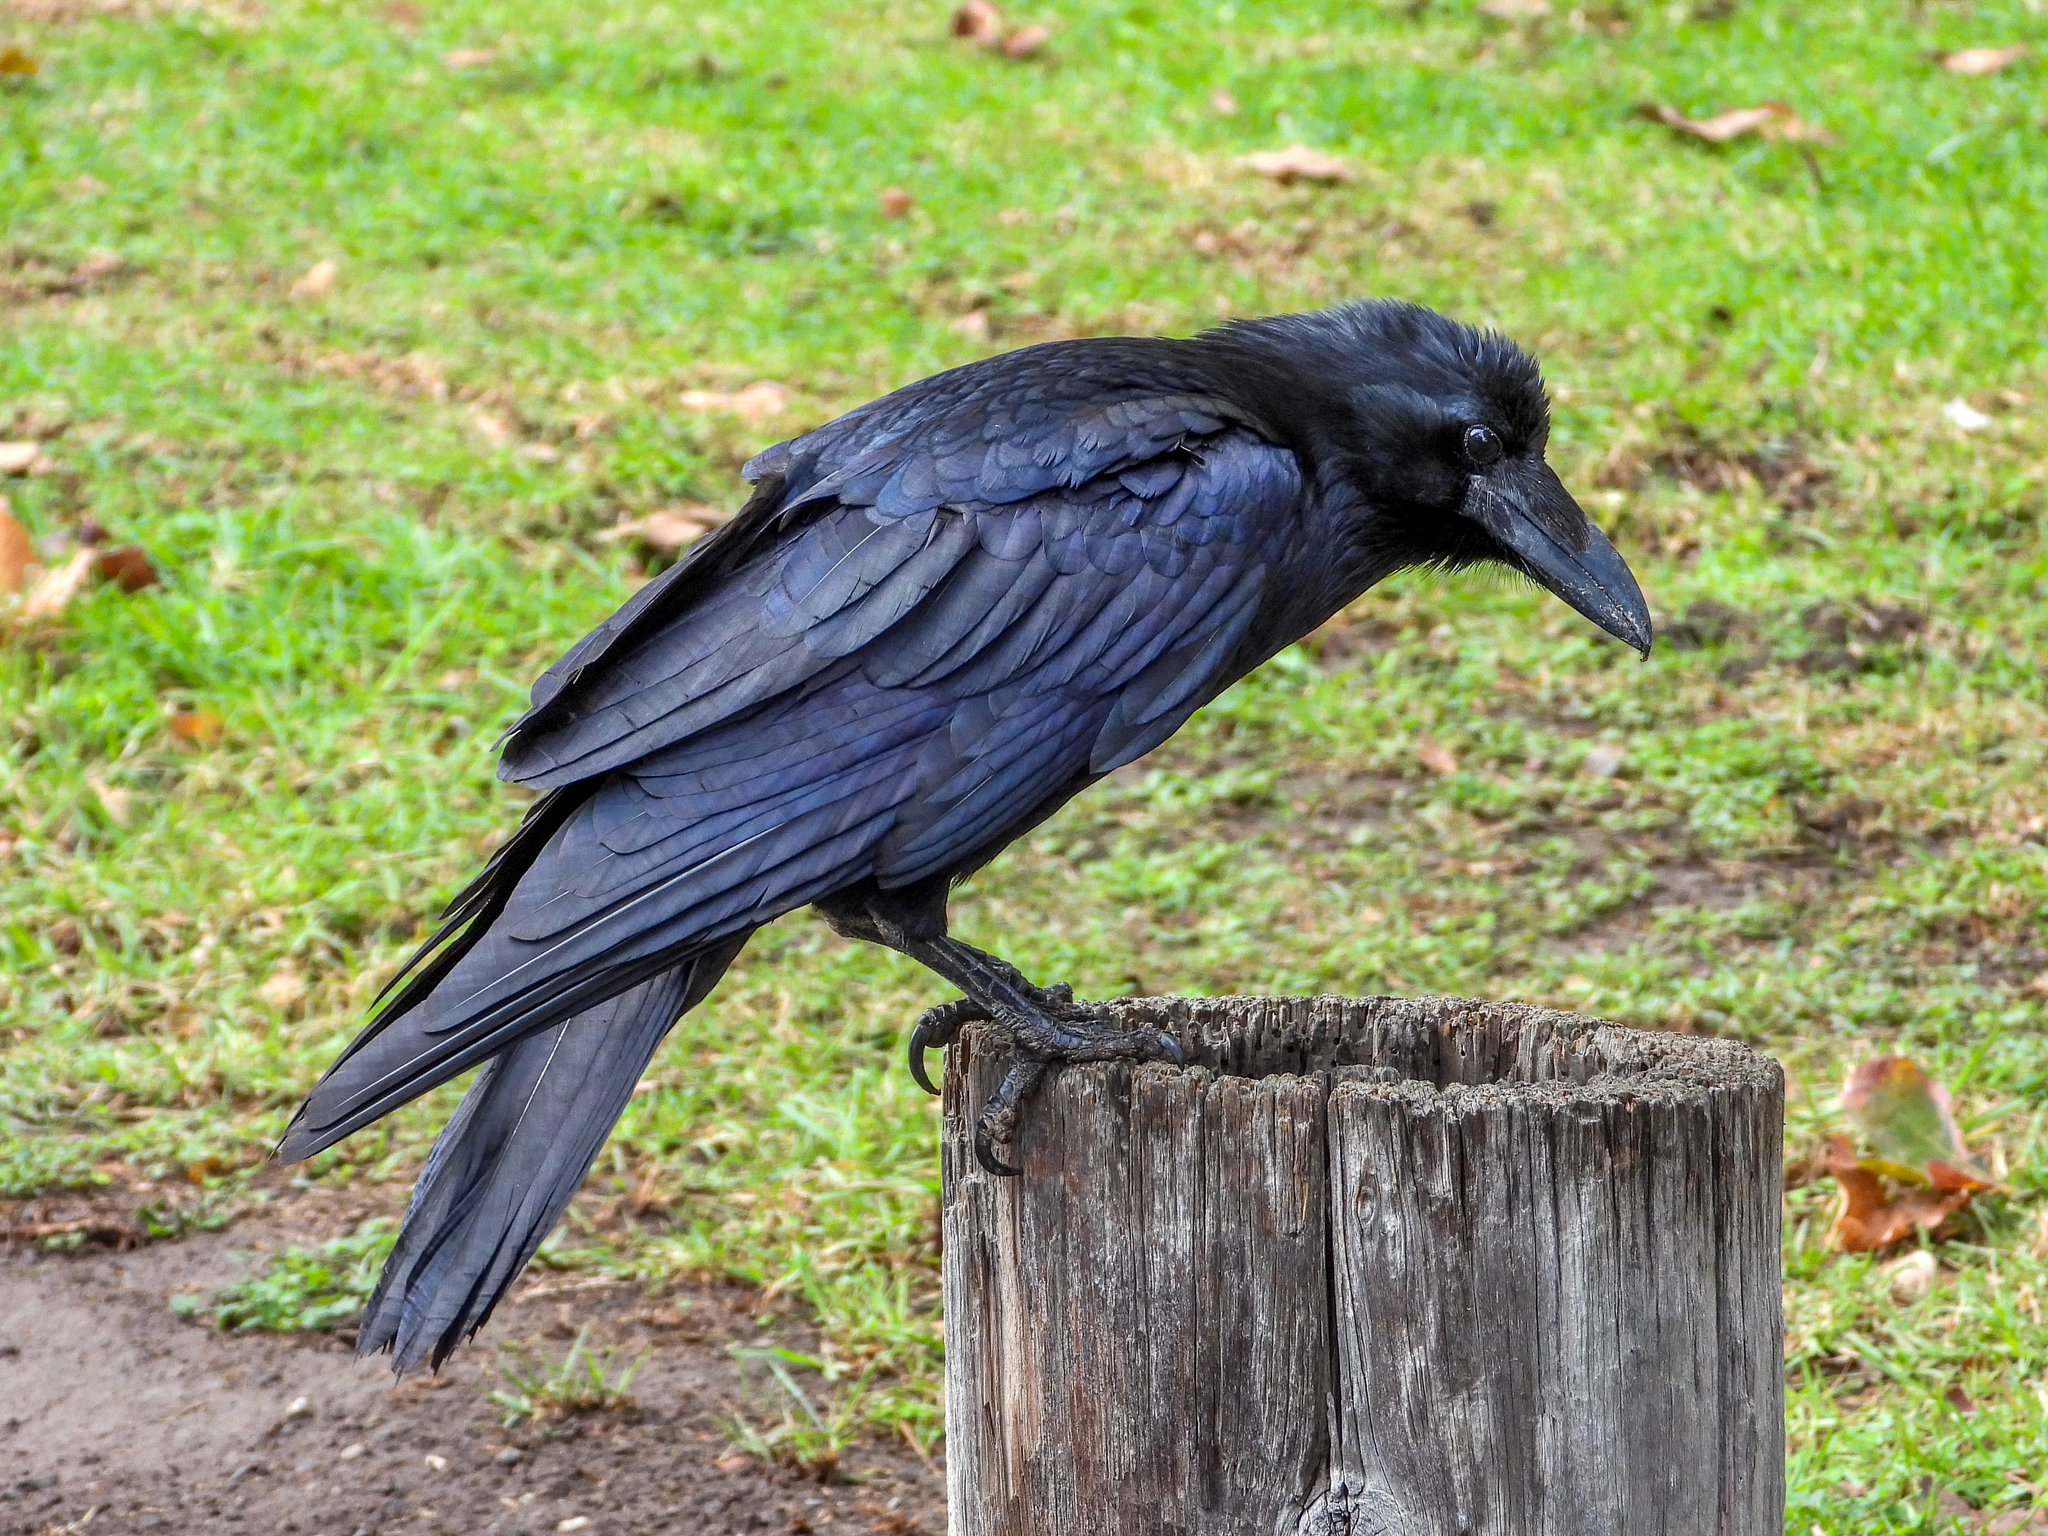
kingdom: Animalia
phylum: Chordata
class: Aves
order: Passeriformes
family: Corvidae
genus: Corvus
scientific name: Corvus corax
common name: Common raven
